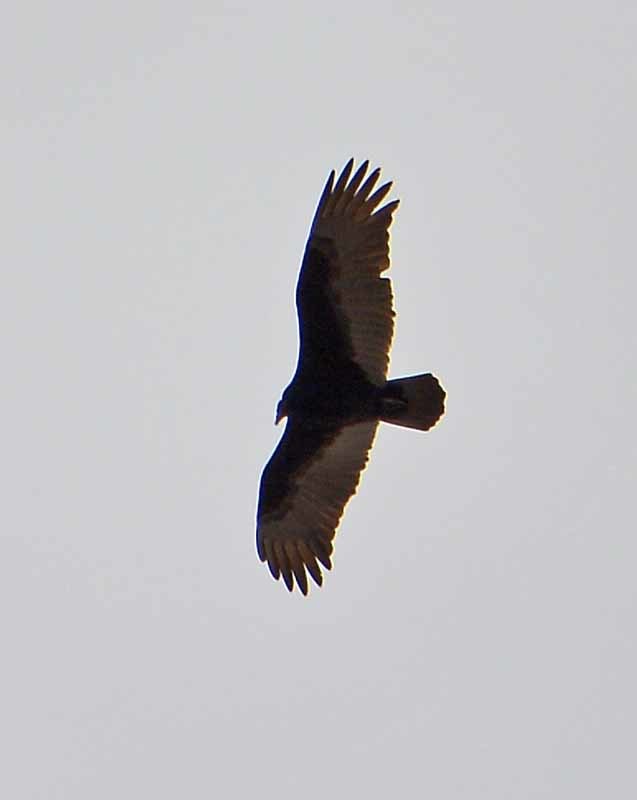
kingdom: Animalia
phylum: Chordata
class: Aves
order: Accipitriformes
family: Cathartidae
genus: Cathartes
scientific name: Cathartes aura
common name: Turkey vulture
